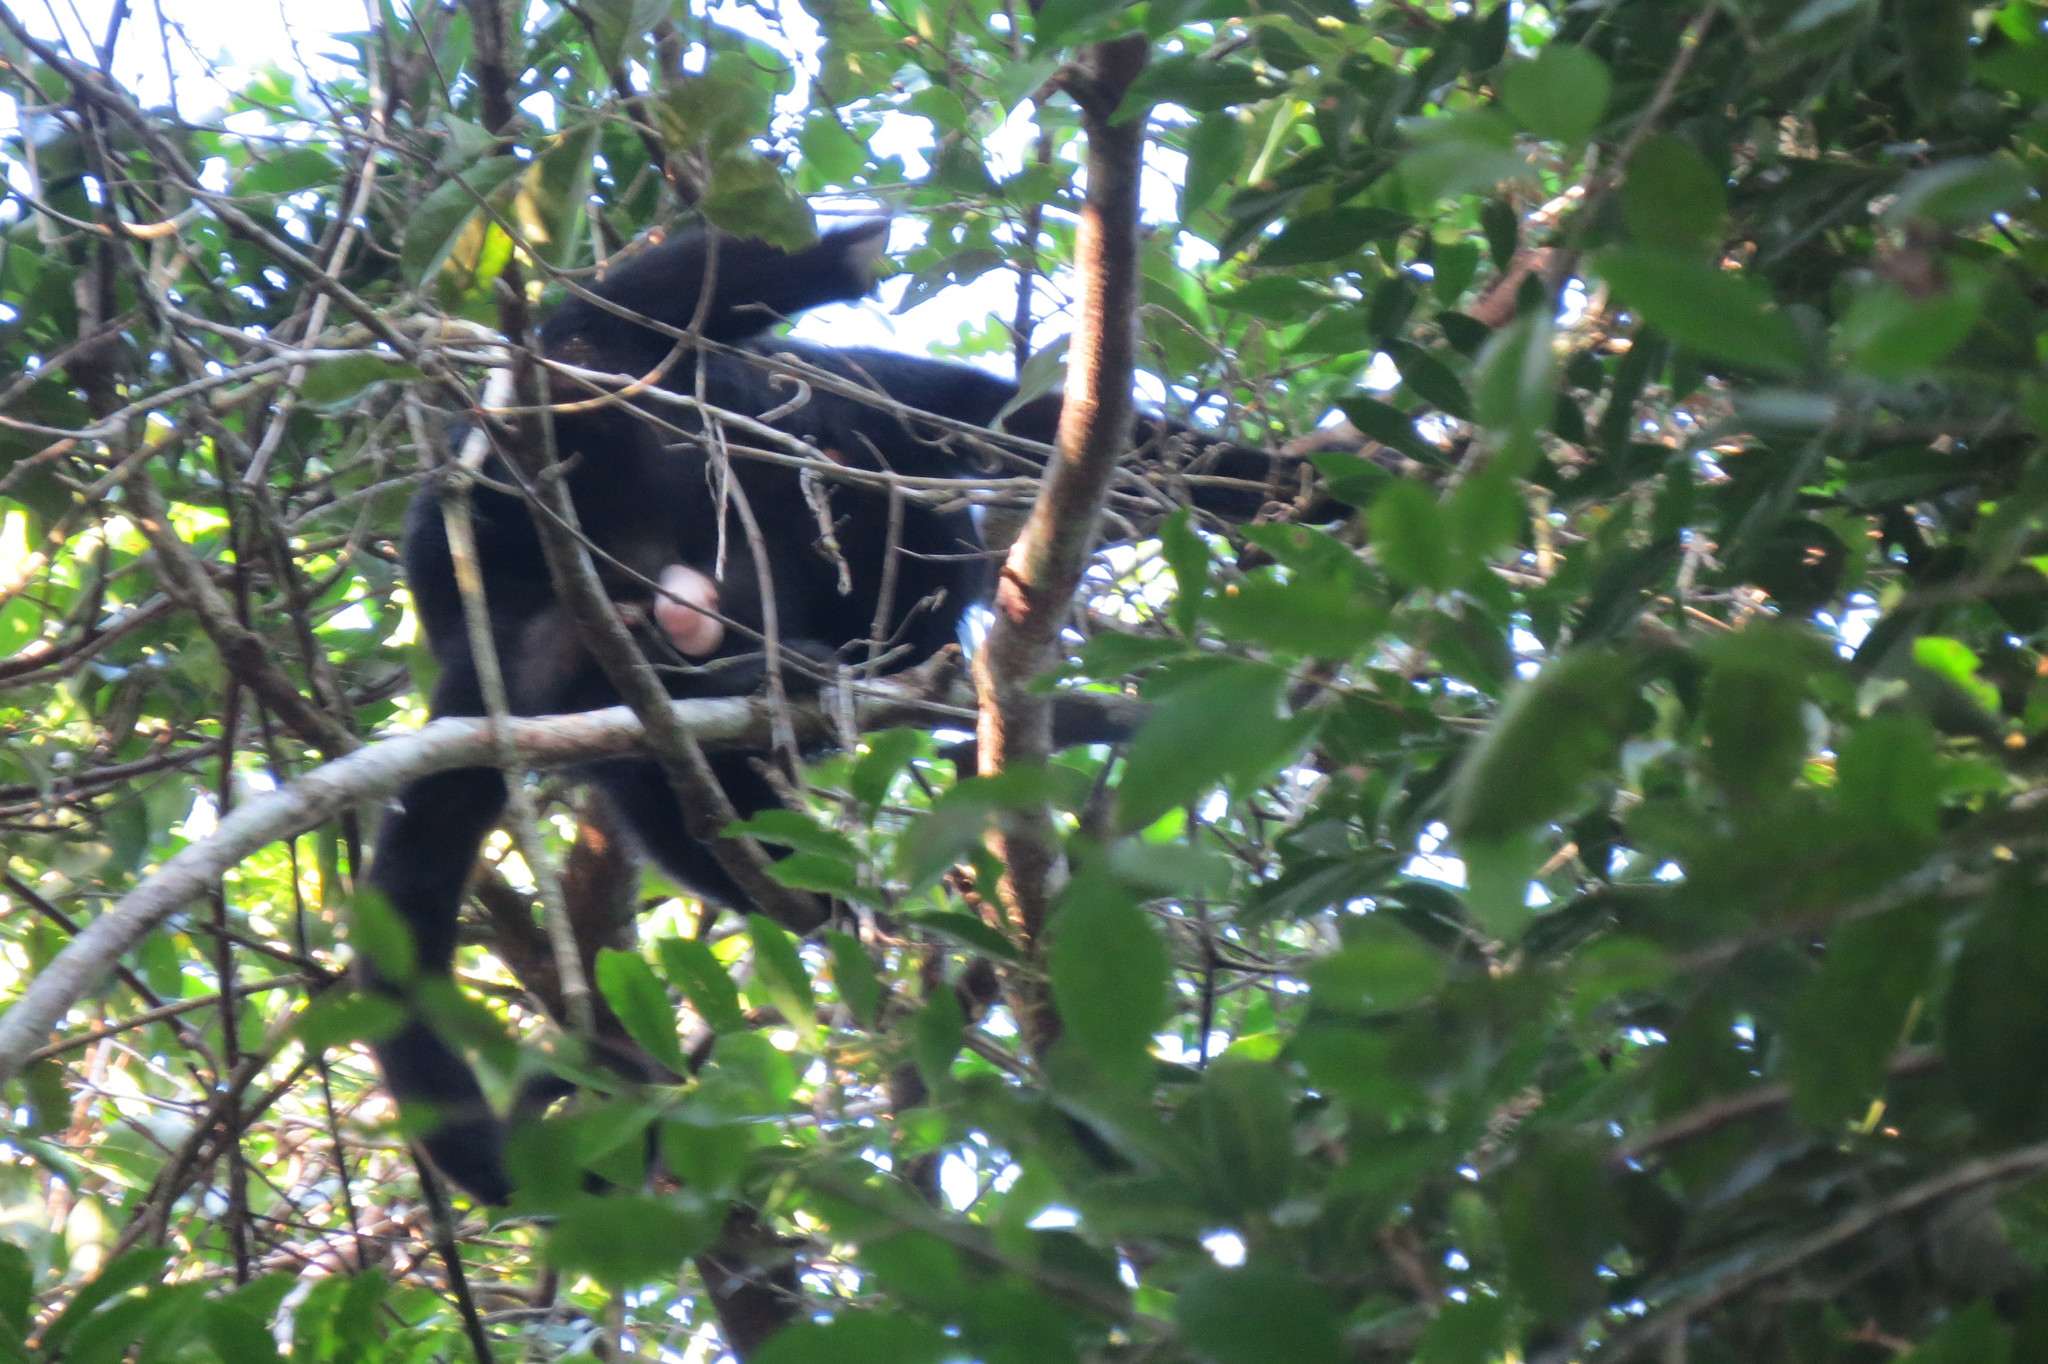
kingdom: Animalia
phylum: Chordata
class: Mammalia
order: Primates
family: Atelidae
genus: Alouatta
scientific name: Alouatta pigra
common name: Guatemalan black howler
